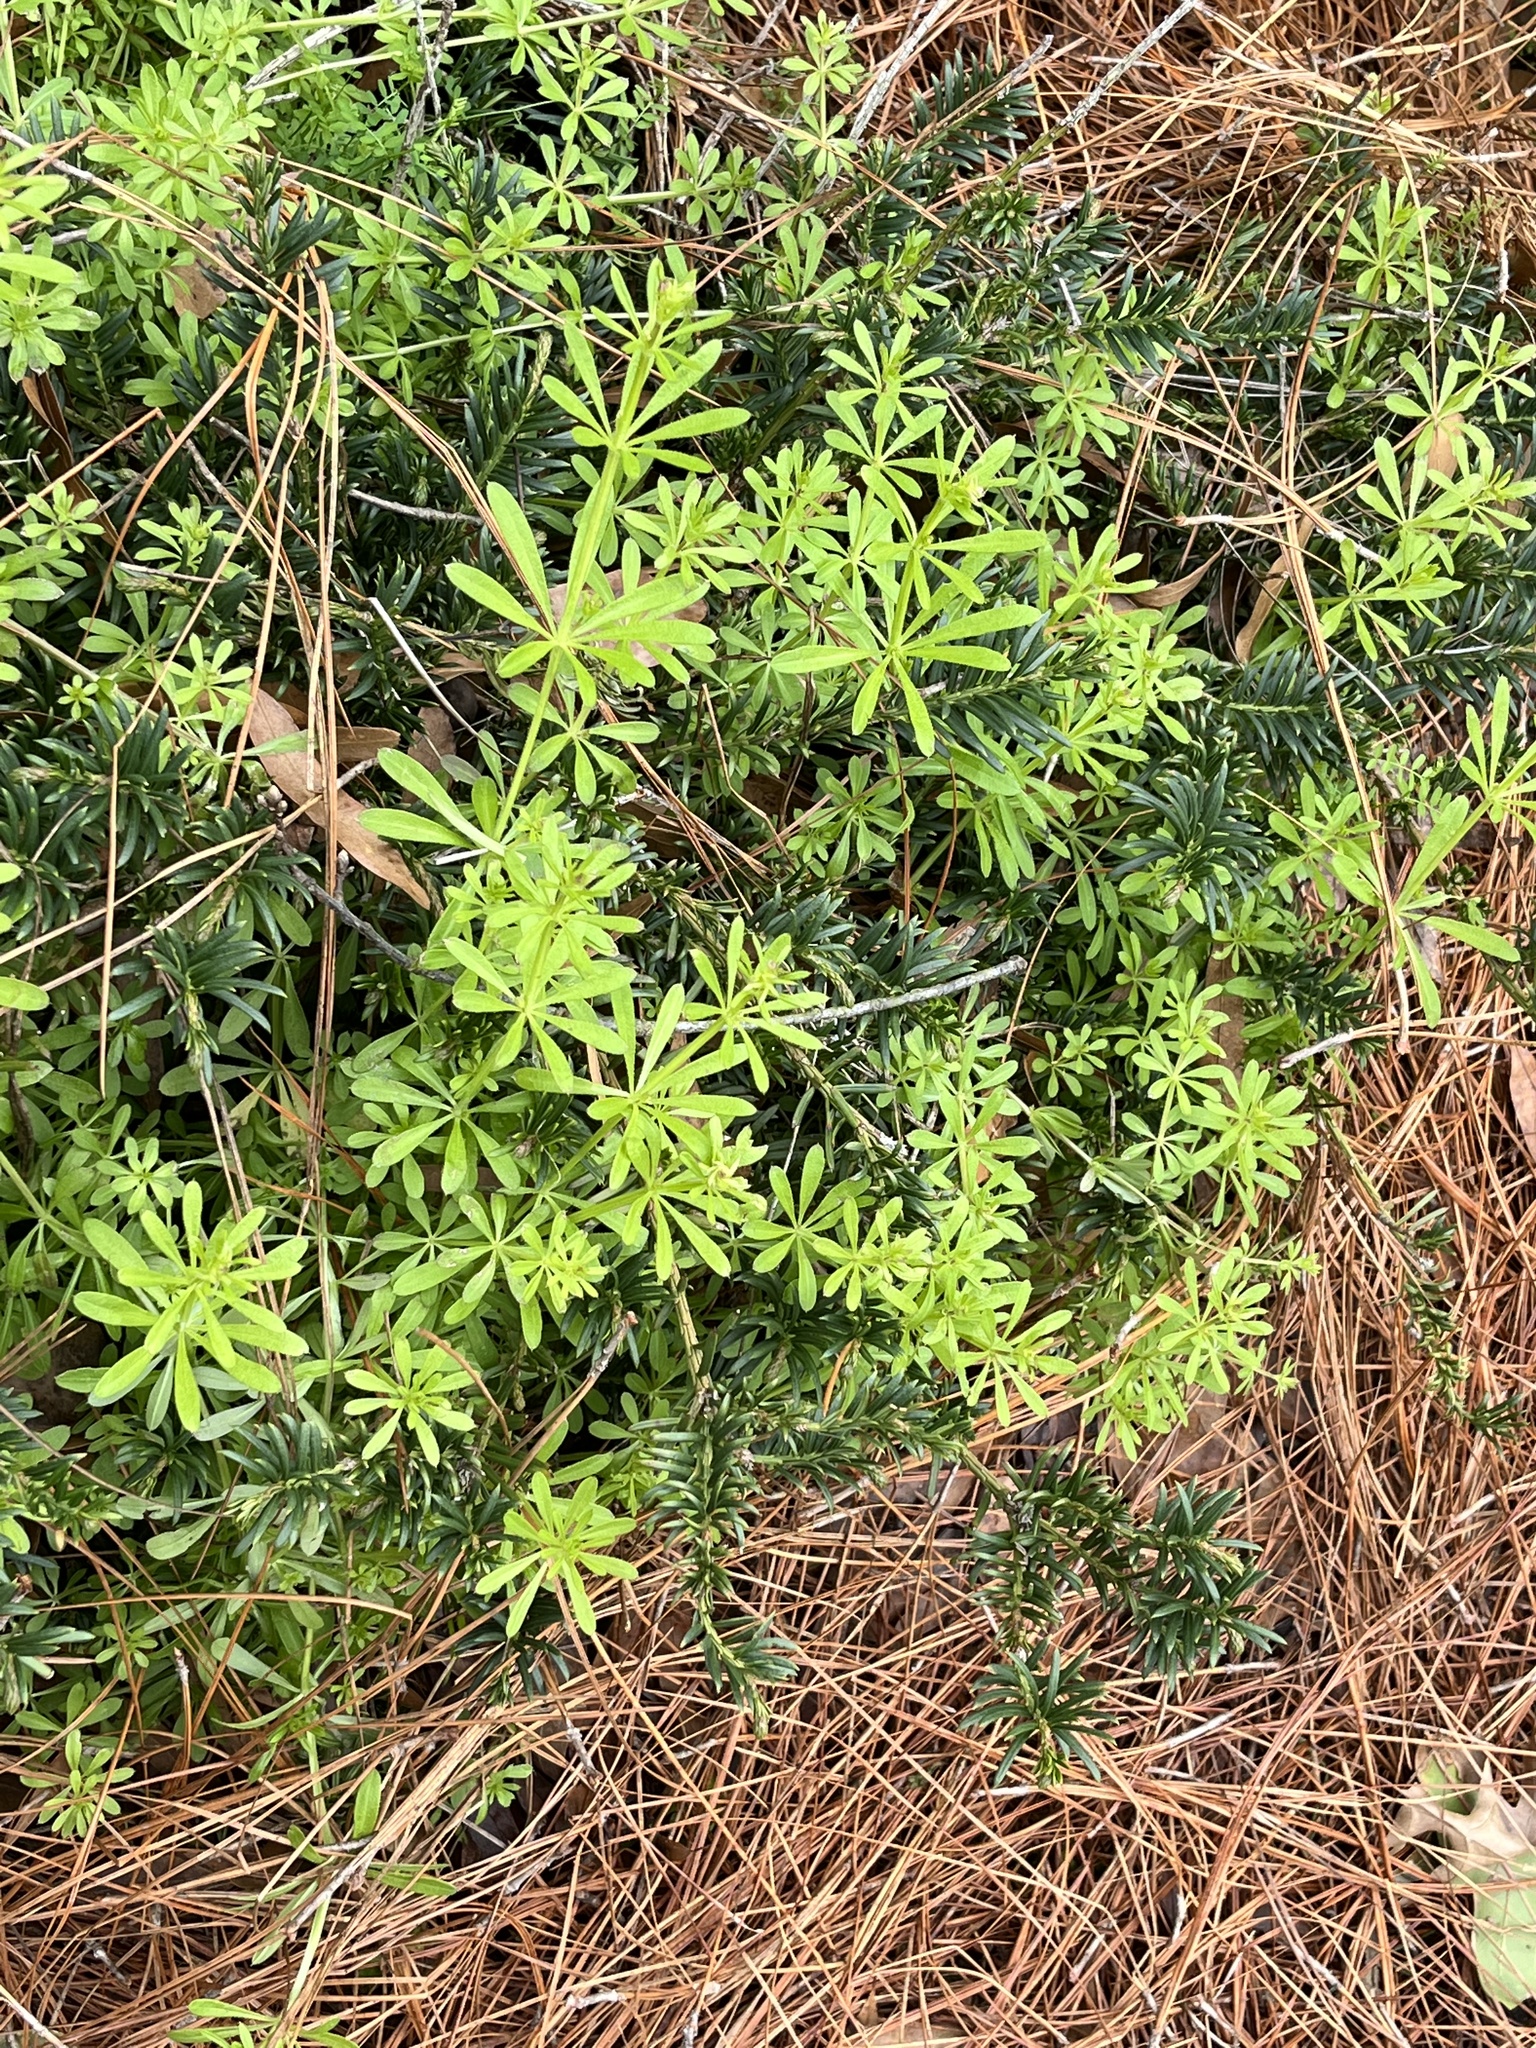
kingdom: Plantae
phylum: Tracheophyta
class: Magnoliopsida
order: Gentianales
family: Rubiaceae
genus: Galium
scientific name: Galium aparine
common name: Cleavers
